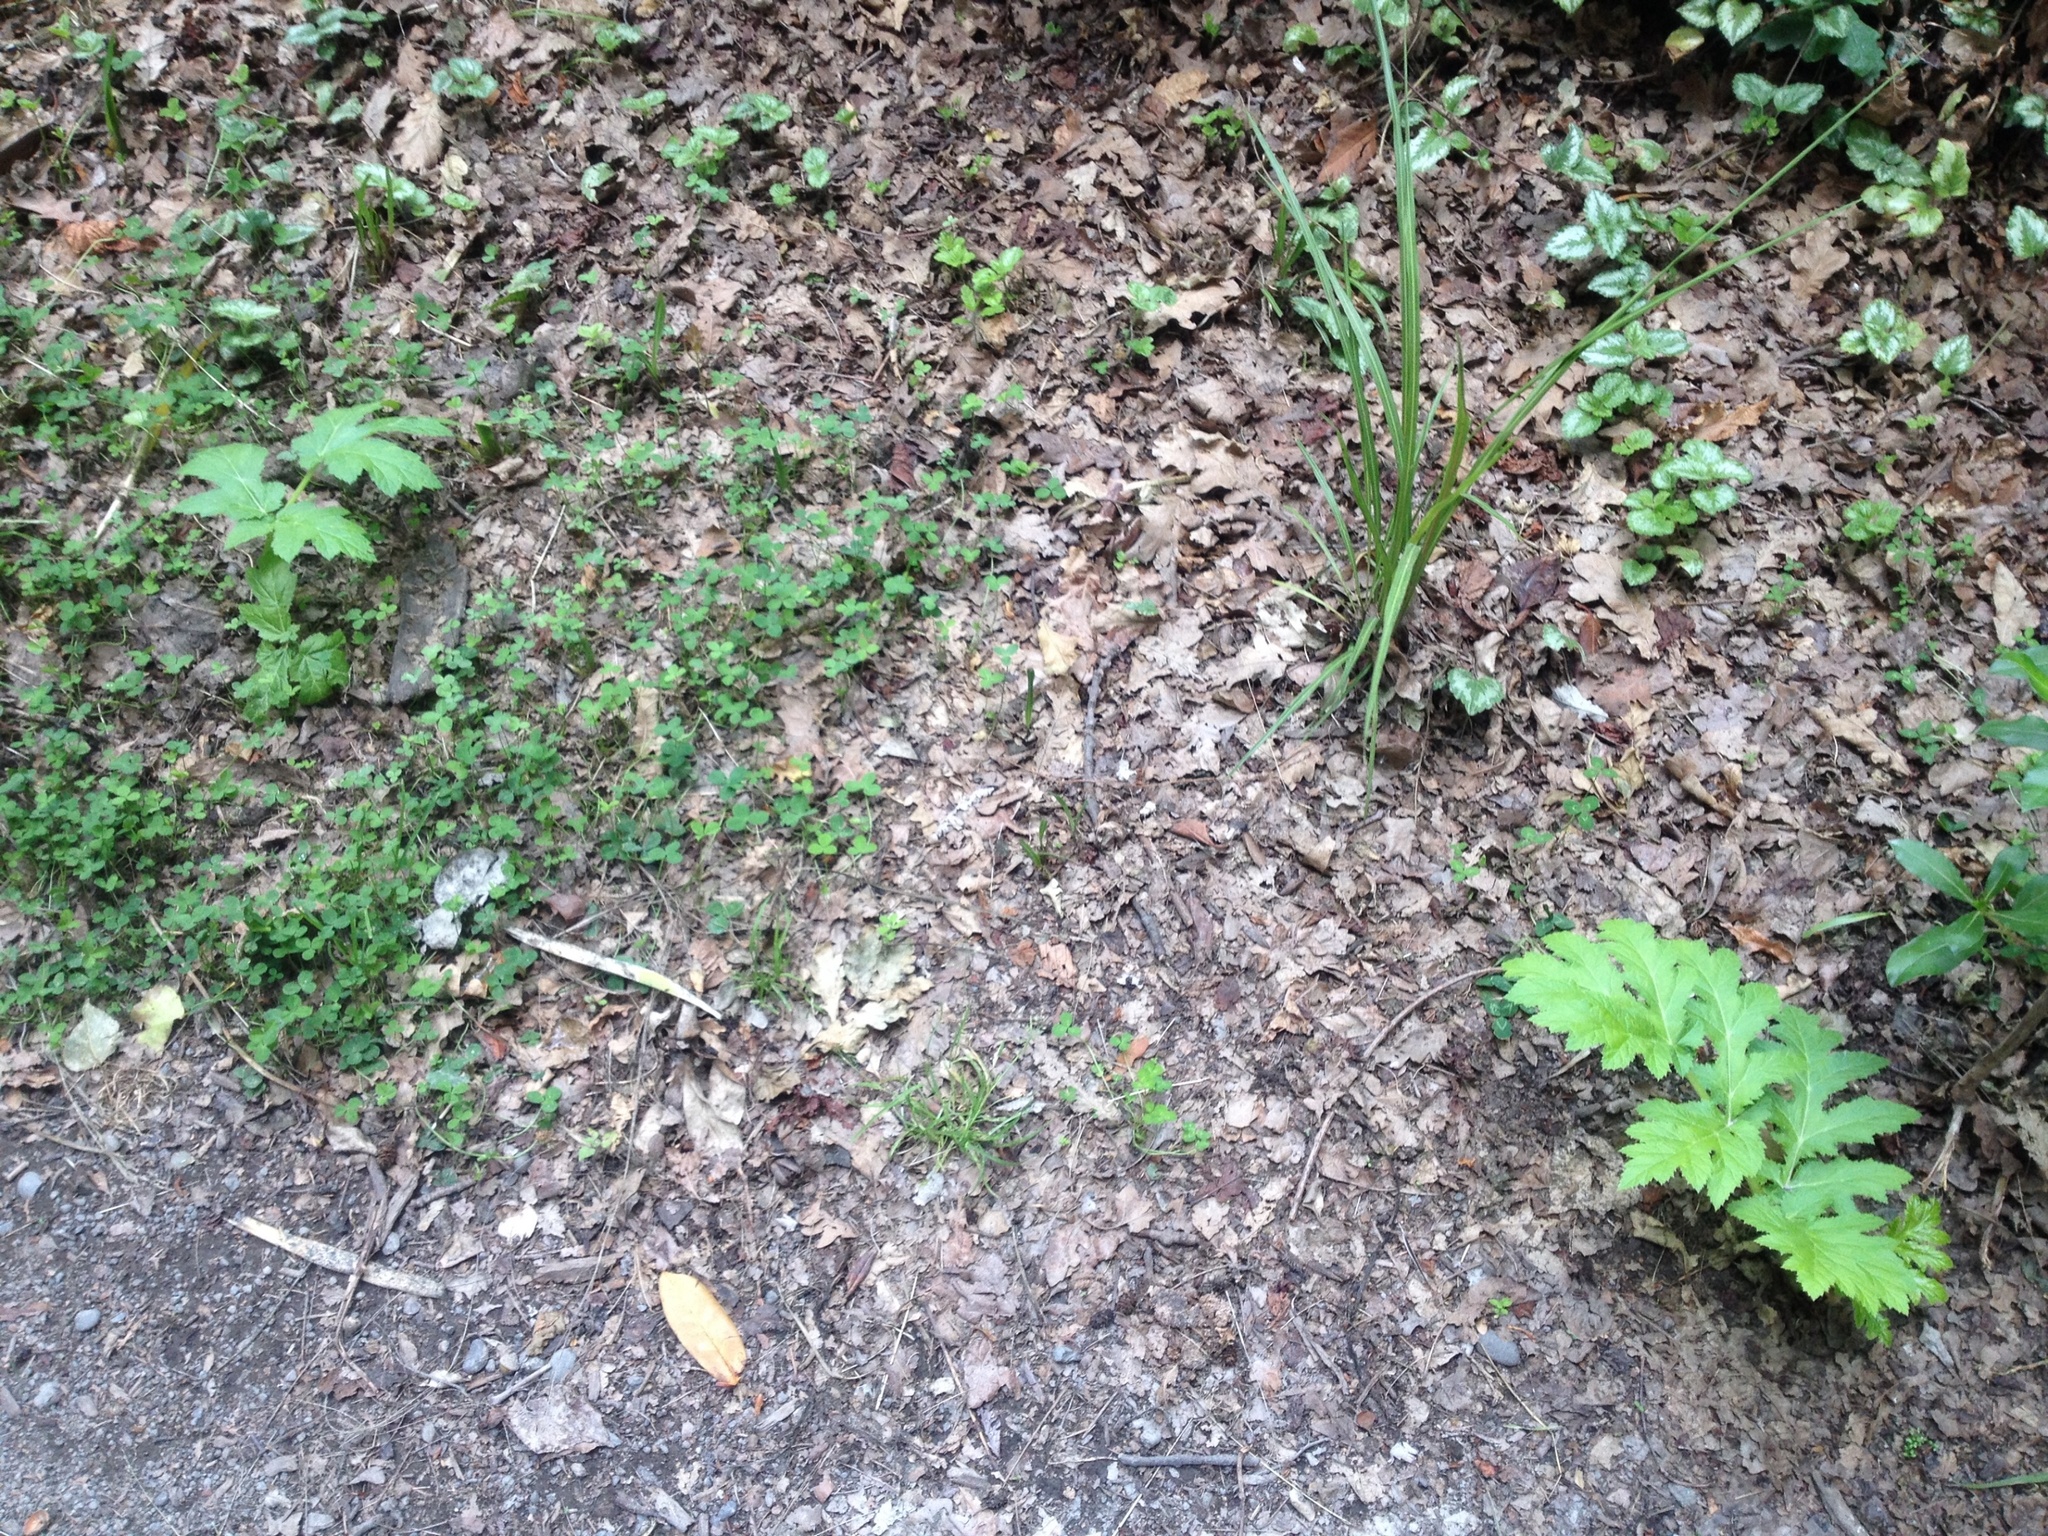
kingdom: Plantae
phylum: Tracheophyta
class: Magnoliopsida
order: Apiales
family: Apiaceae
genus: Heracleum
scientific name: Heracleum mantegazzianum
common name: Giant hogweed
